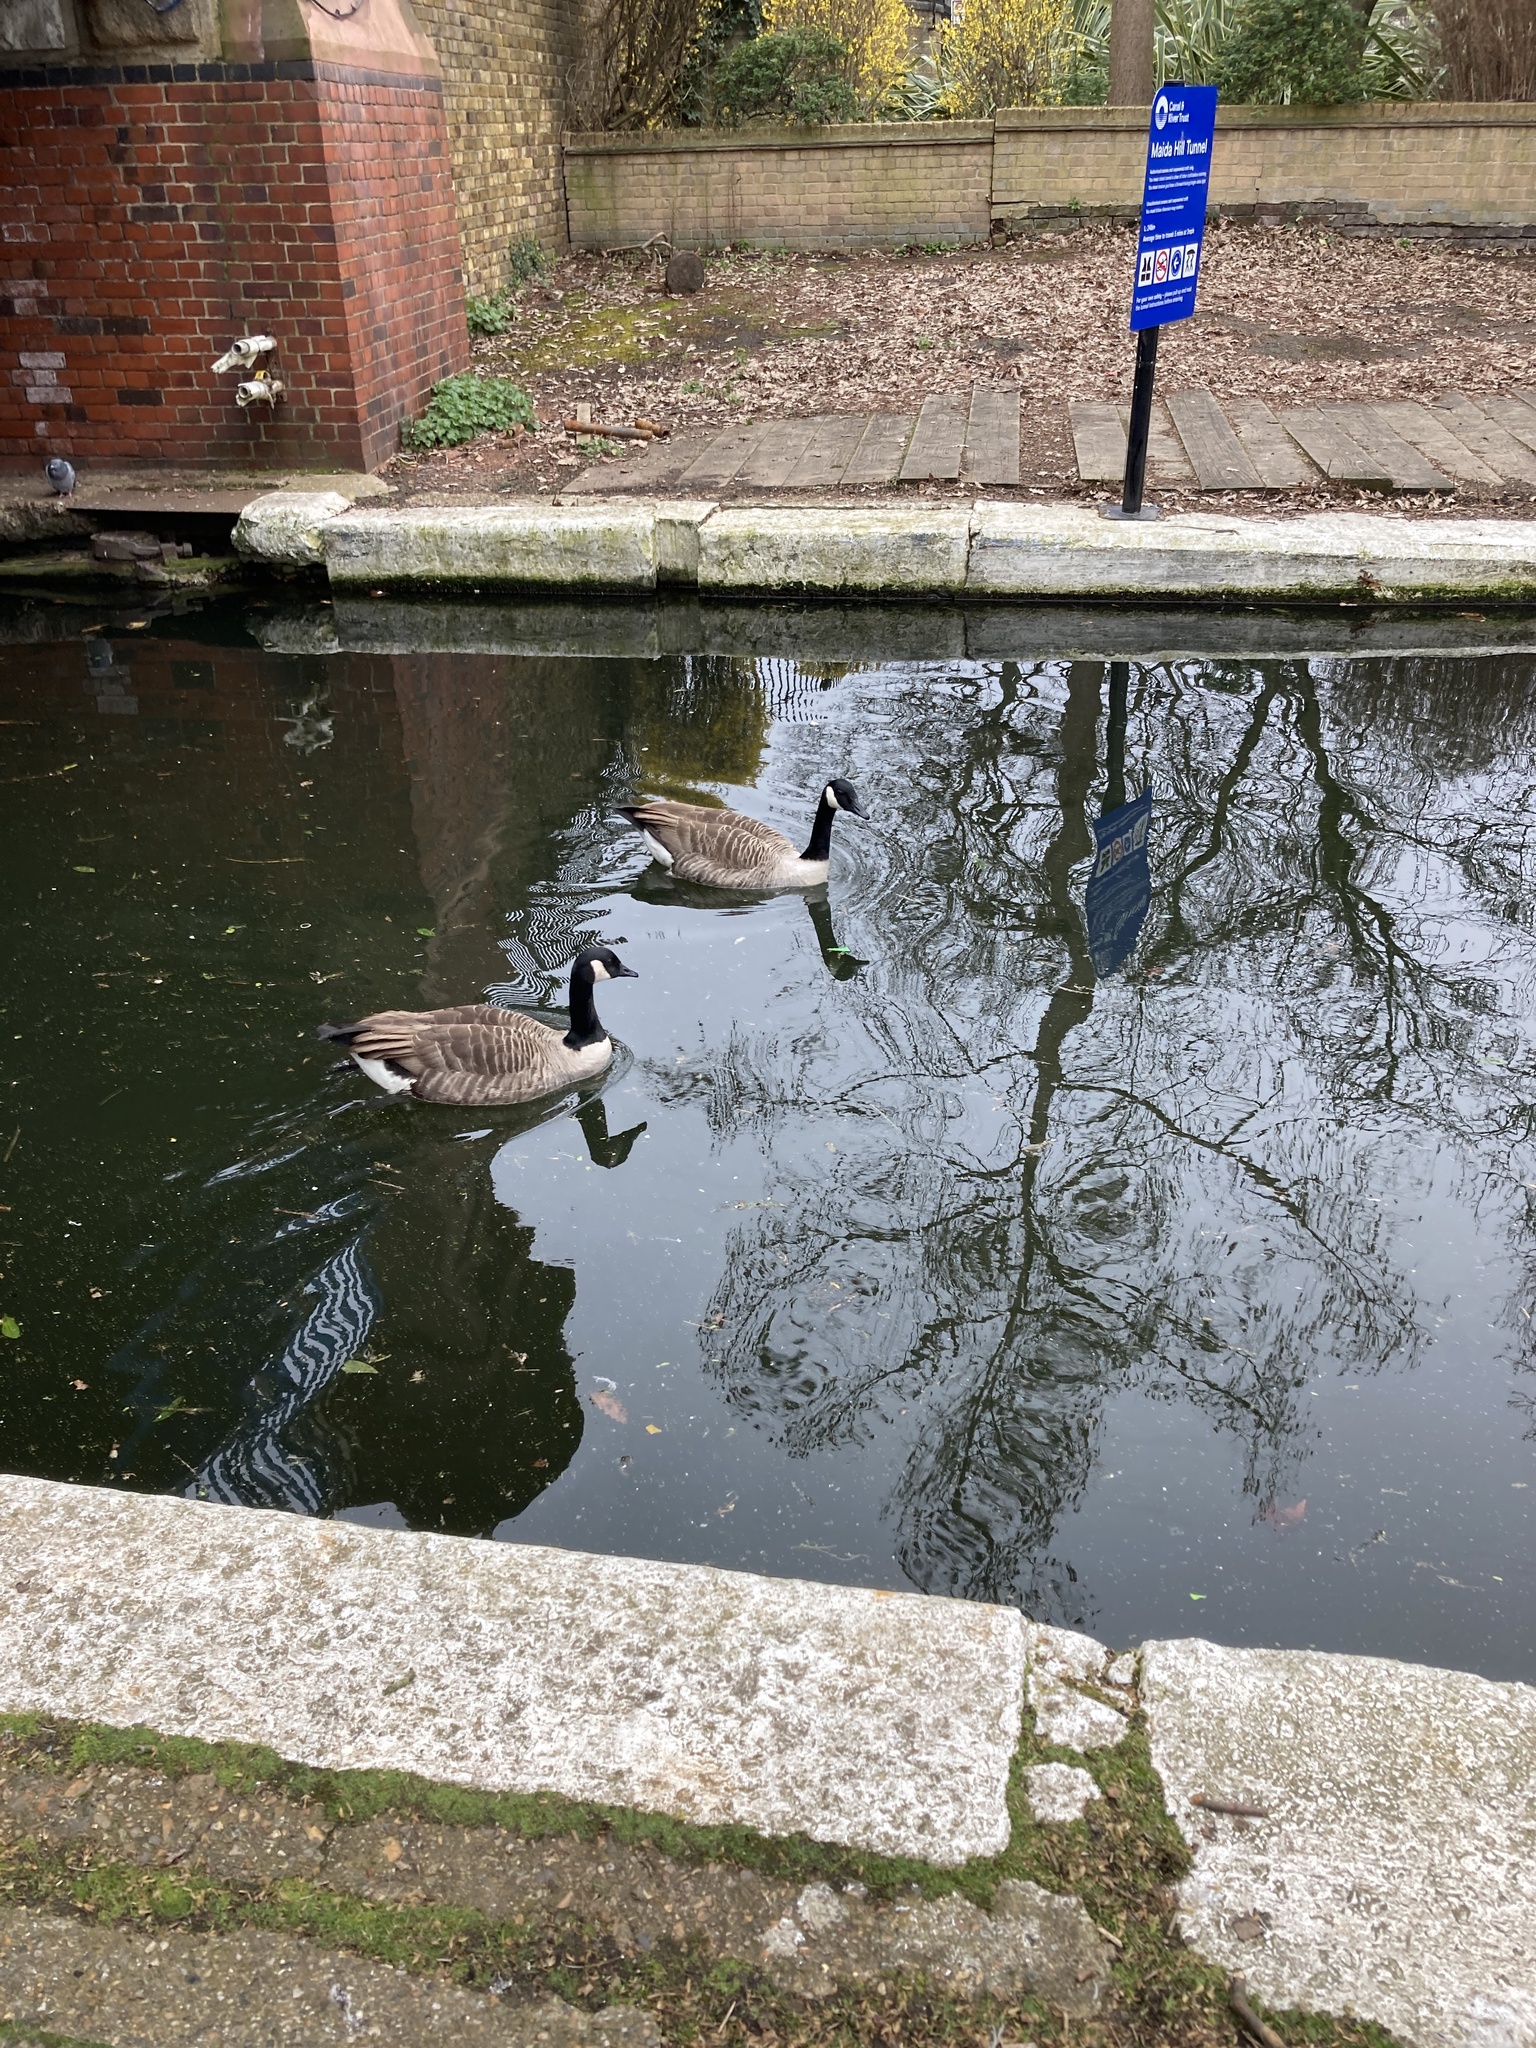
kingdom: Animalia
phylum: Chordata
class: Aves
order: Anseriformes
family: Anatidae
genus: Branta
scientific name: Branta canadensis
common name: Canada goose
